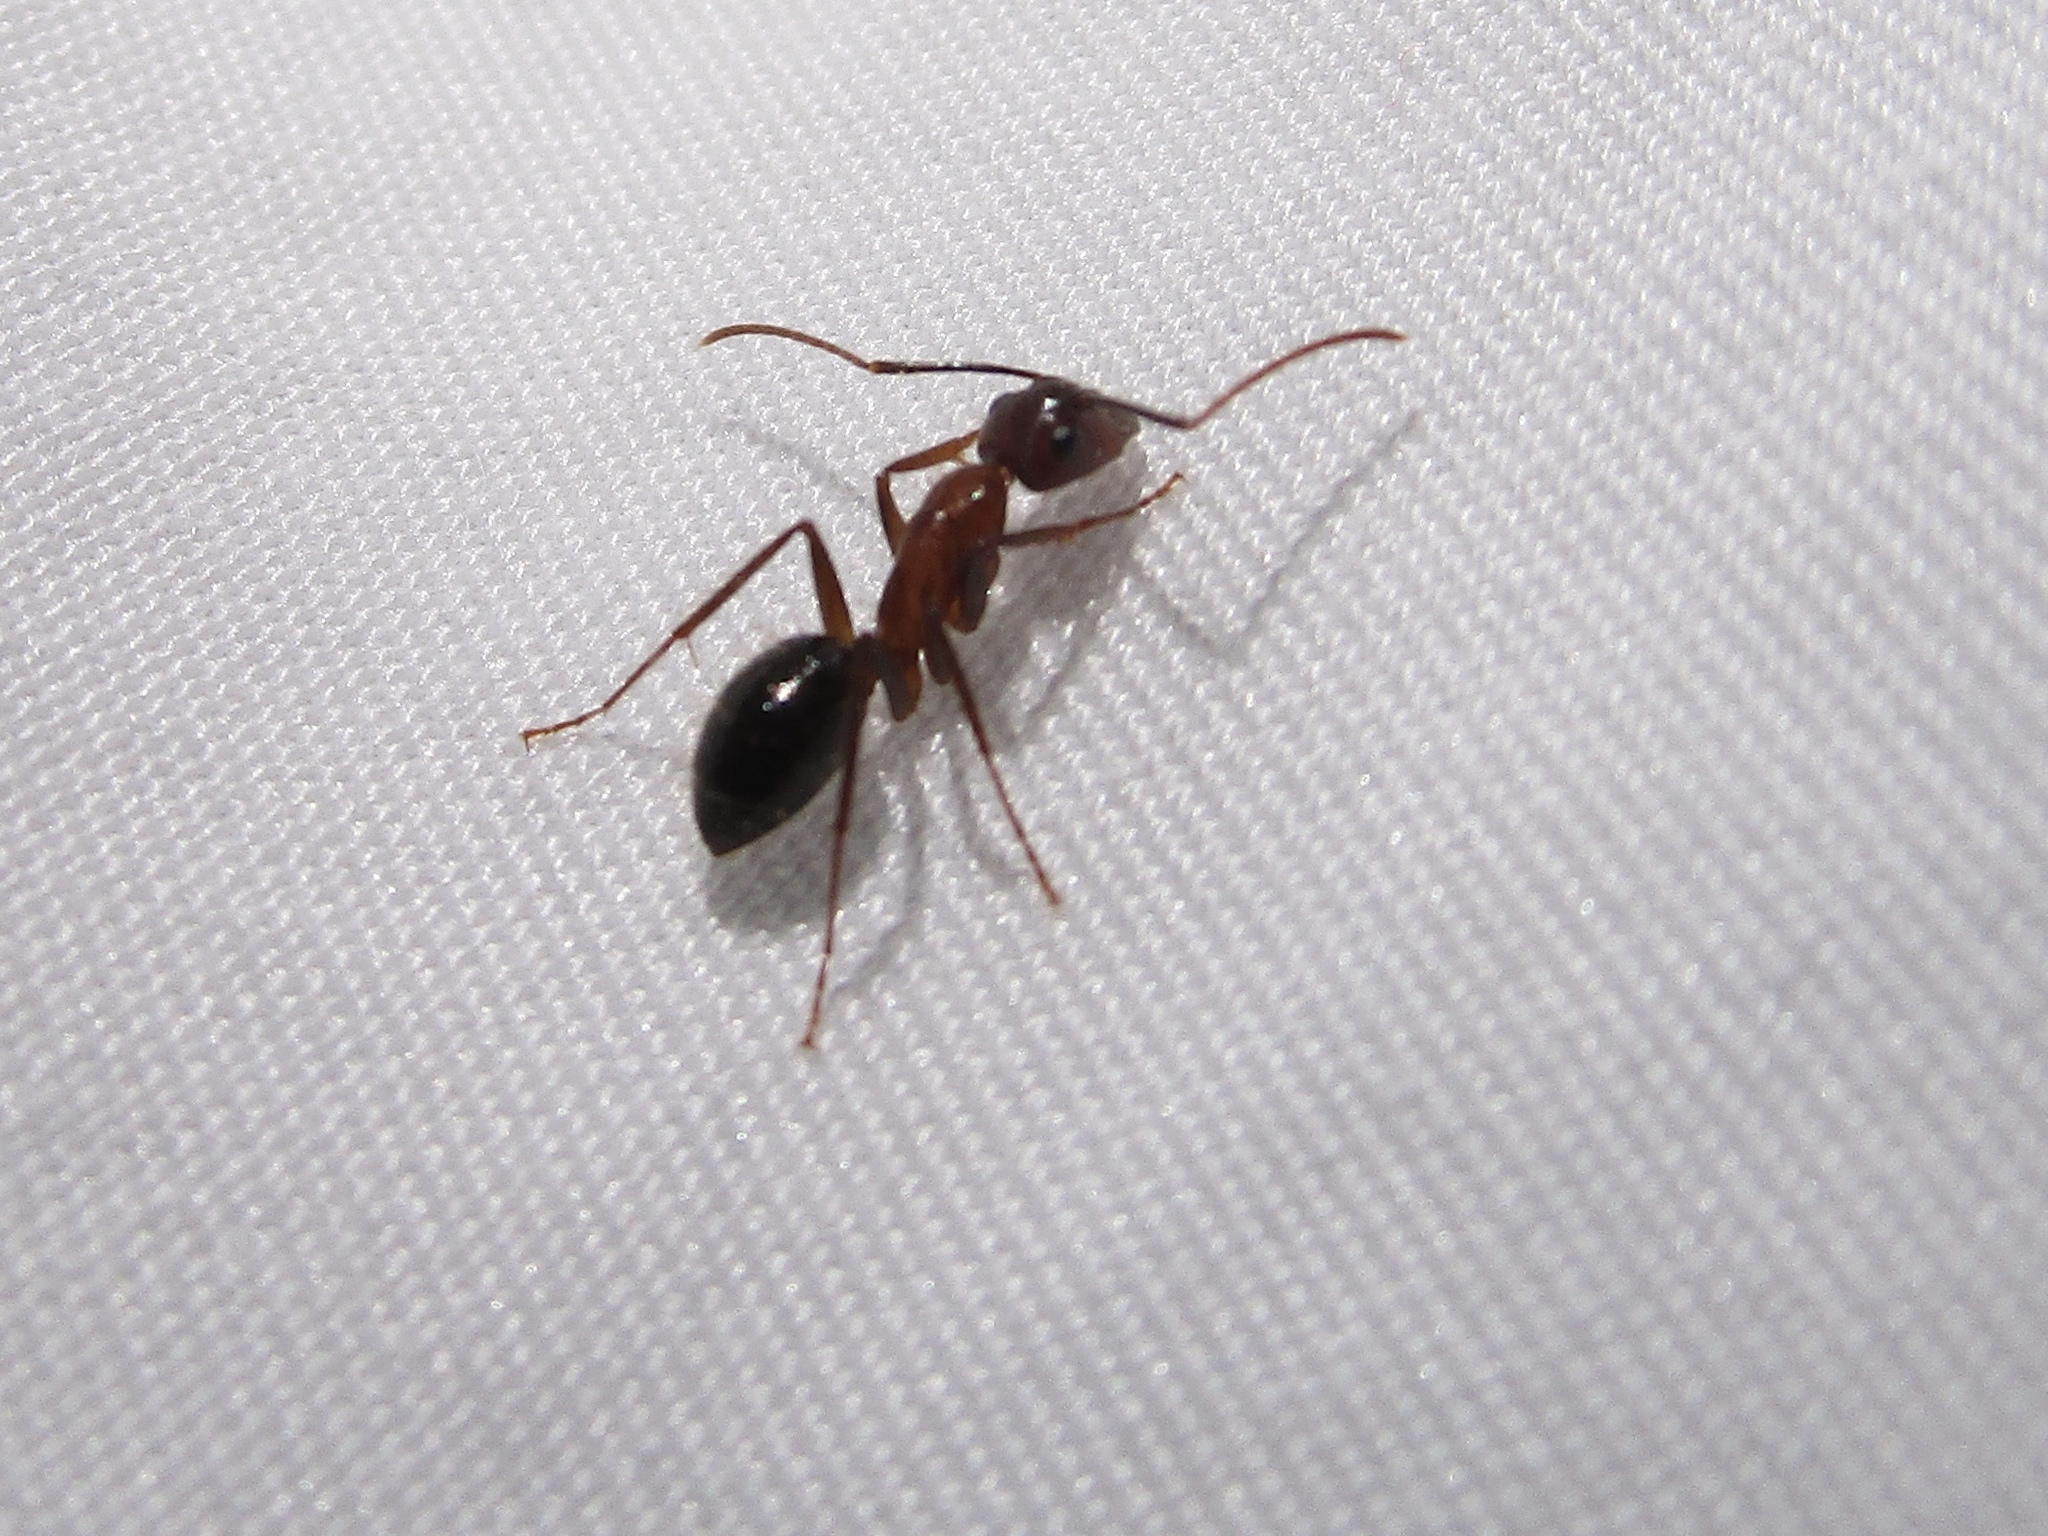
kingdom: Animalia
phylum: Arthropoda
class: Insecta
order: Hymenoptera
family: Formicidae
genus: Camponotus
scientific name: Camponotus floridanus
